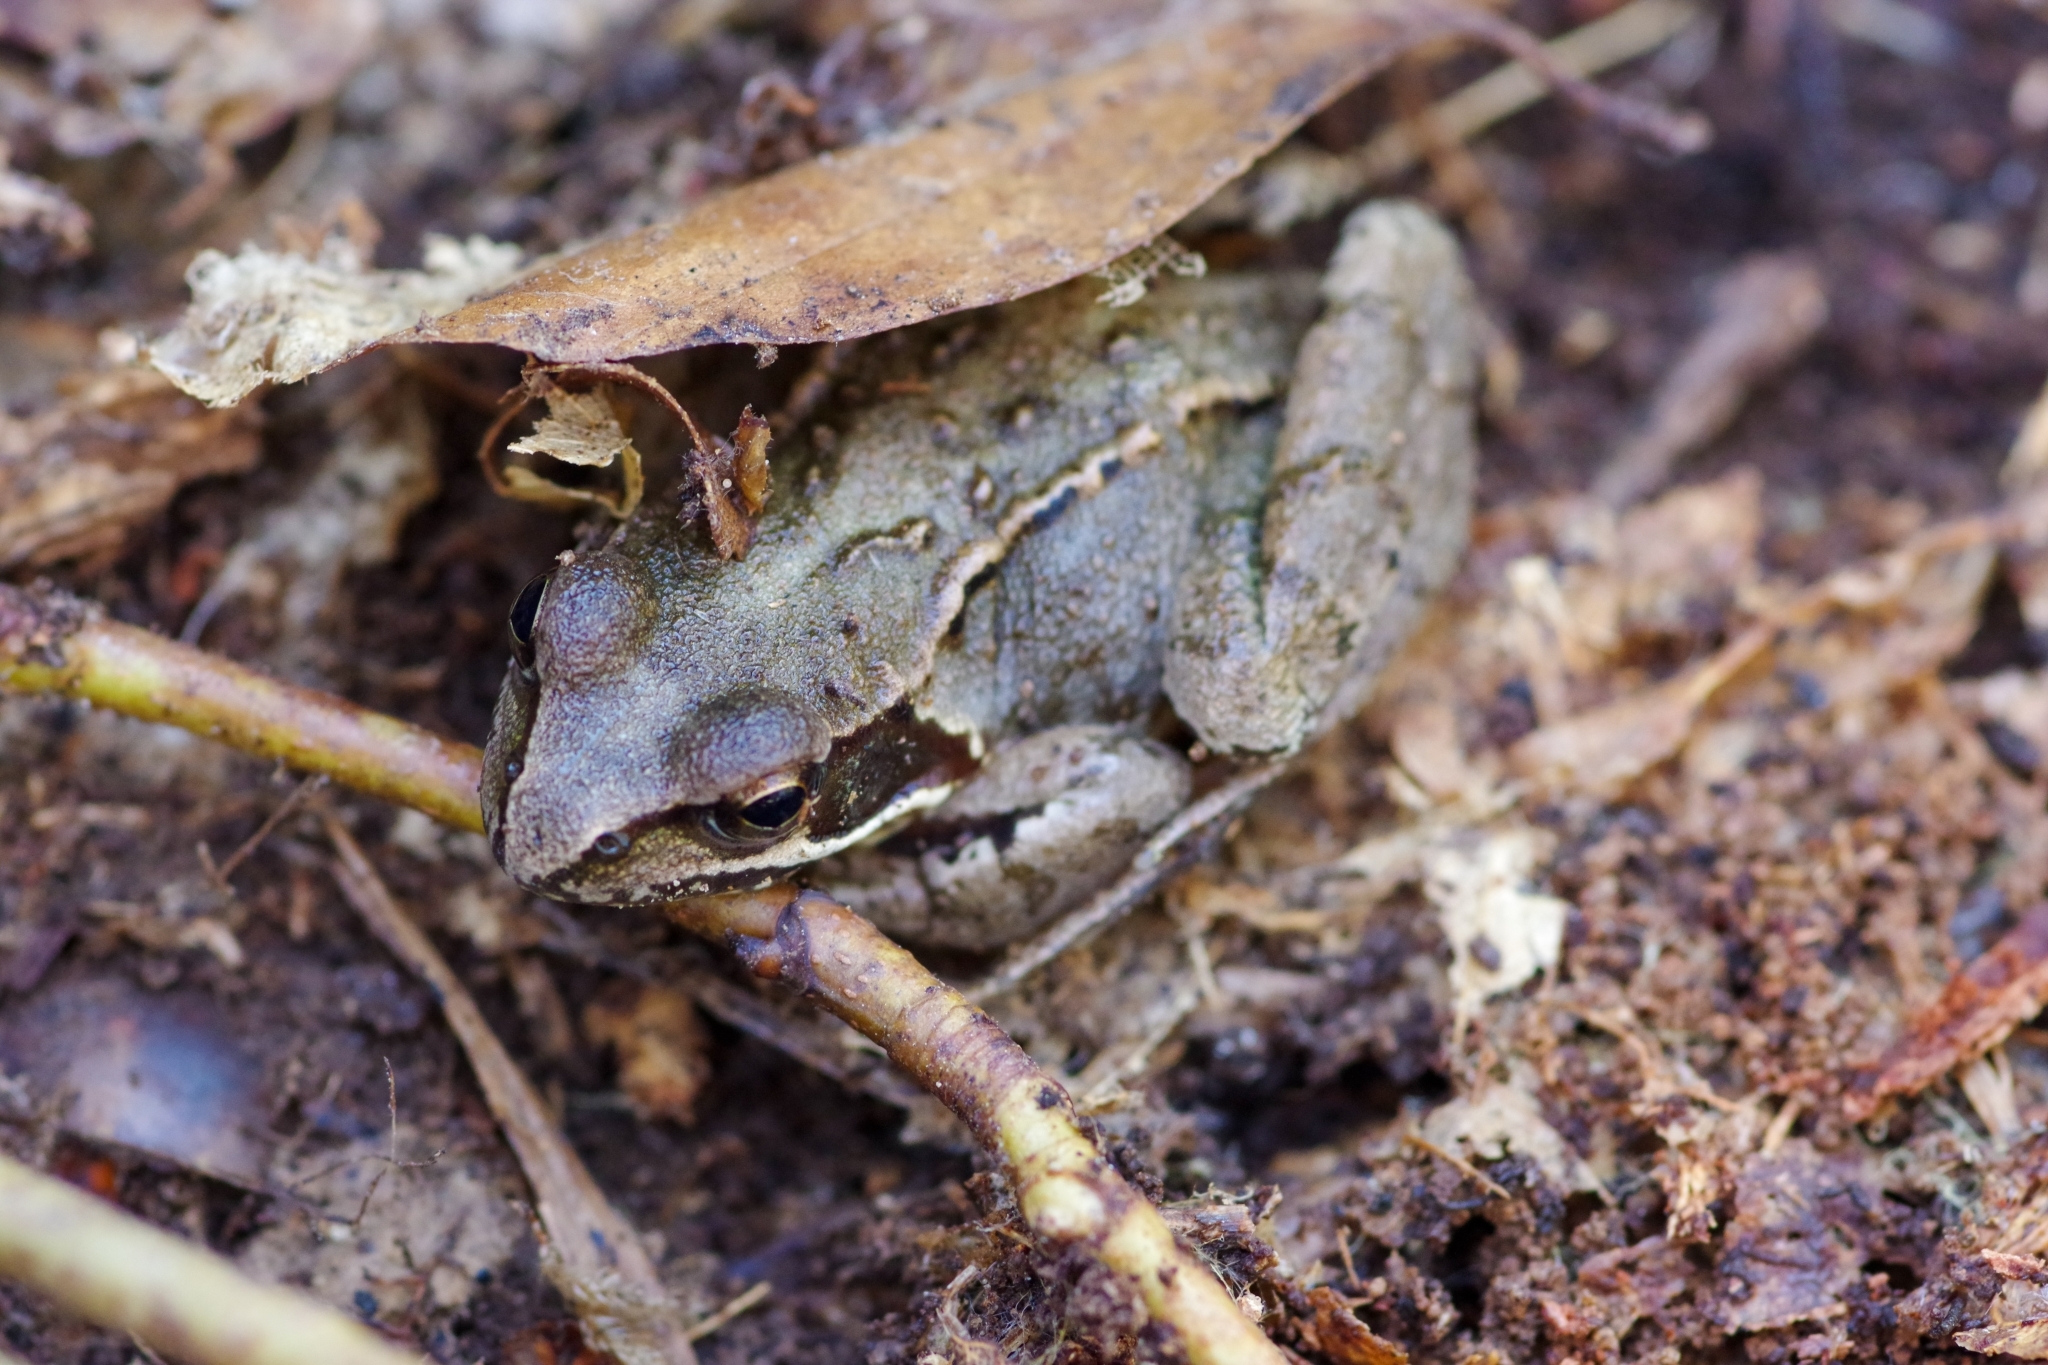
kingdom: Animalia
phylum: Chordata
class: Amphibia
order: Anura
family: Ranidae
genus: Rana
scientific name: Rana temporaria
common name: Common frog
